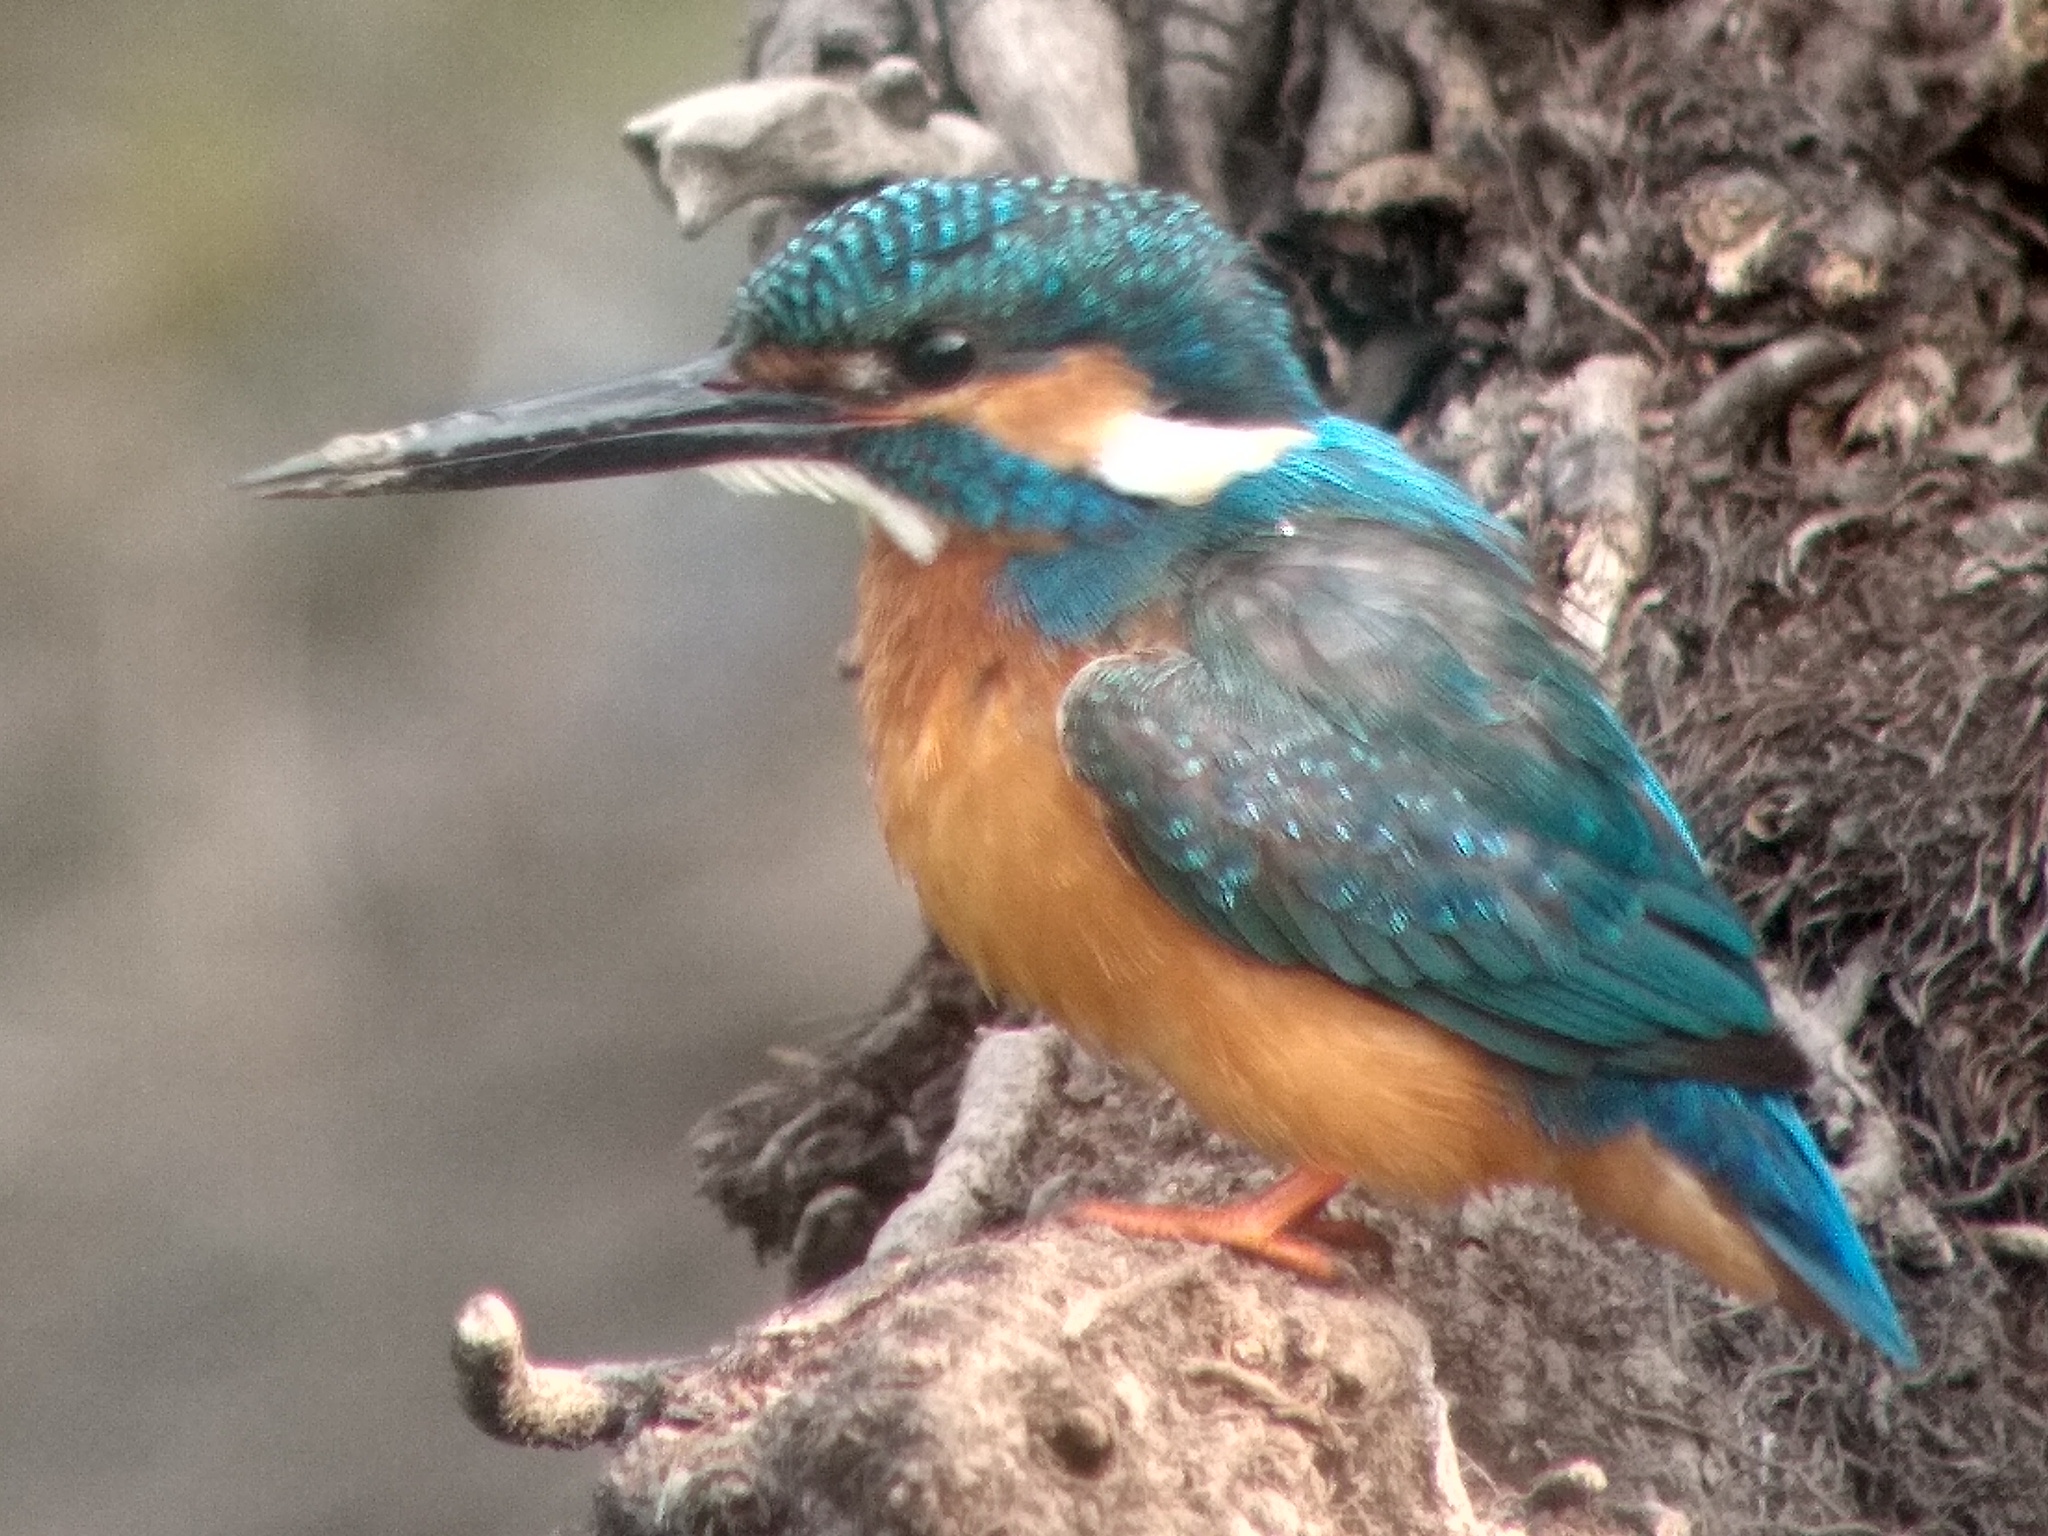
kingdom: Animalia
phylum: Chordata
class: Aves
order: Coraciiformes
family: Alcedinidae
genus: Alcedo
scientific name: Alcedo atthis
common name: Common kingfisher
